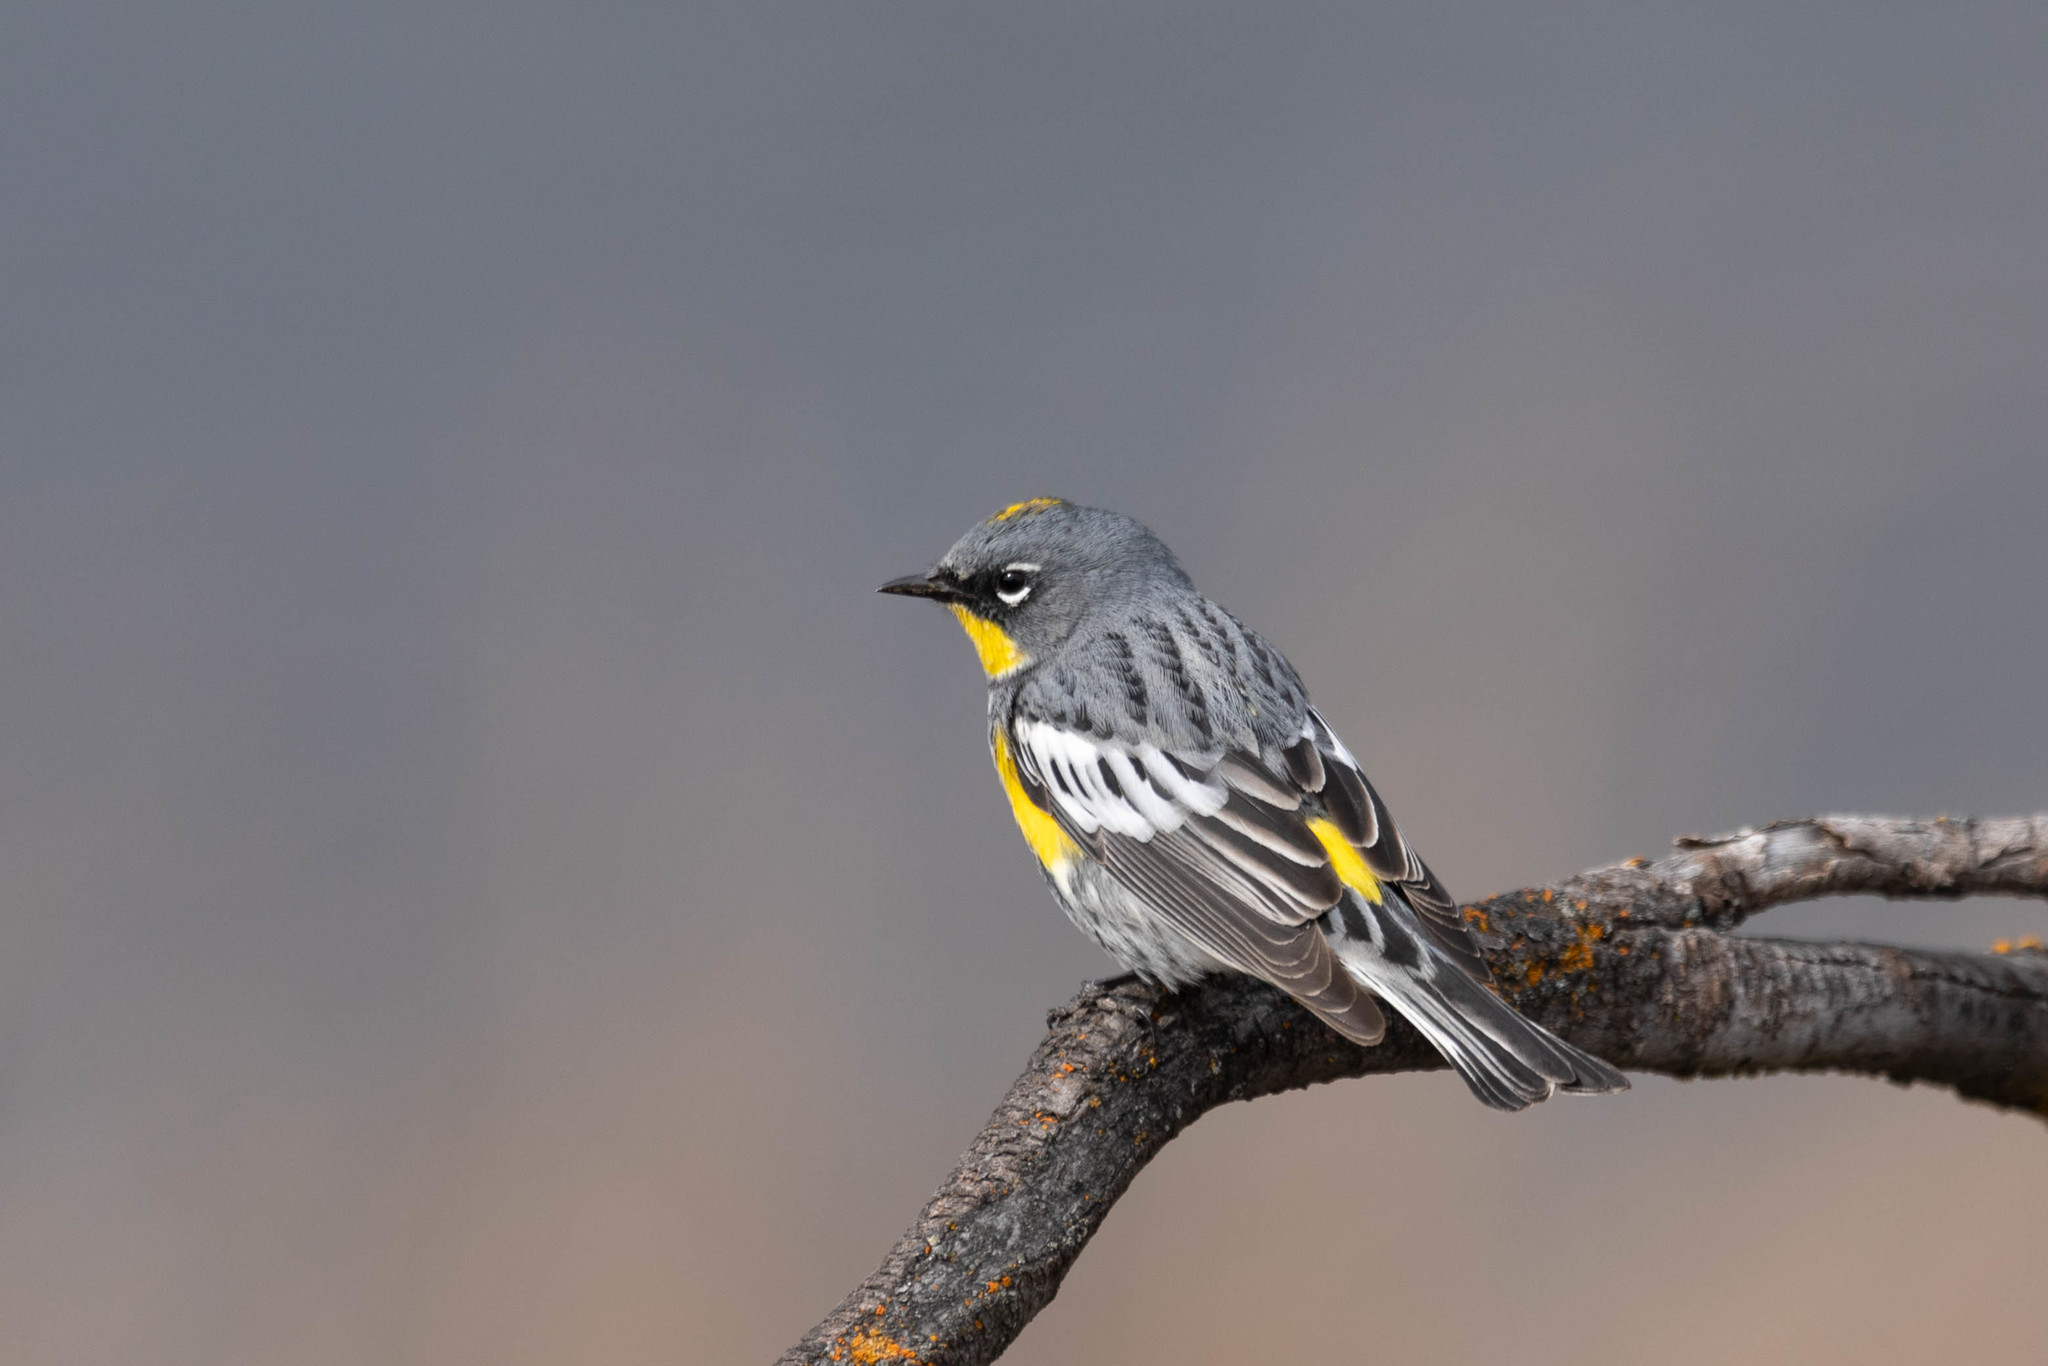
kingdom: Animalia
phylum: Chordata
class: Aves
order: Passeriformes
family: Parulidae
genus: Setophaga
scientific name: Setophaga auduboni
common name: Audubon's warbler
